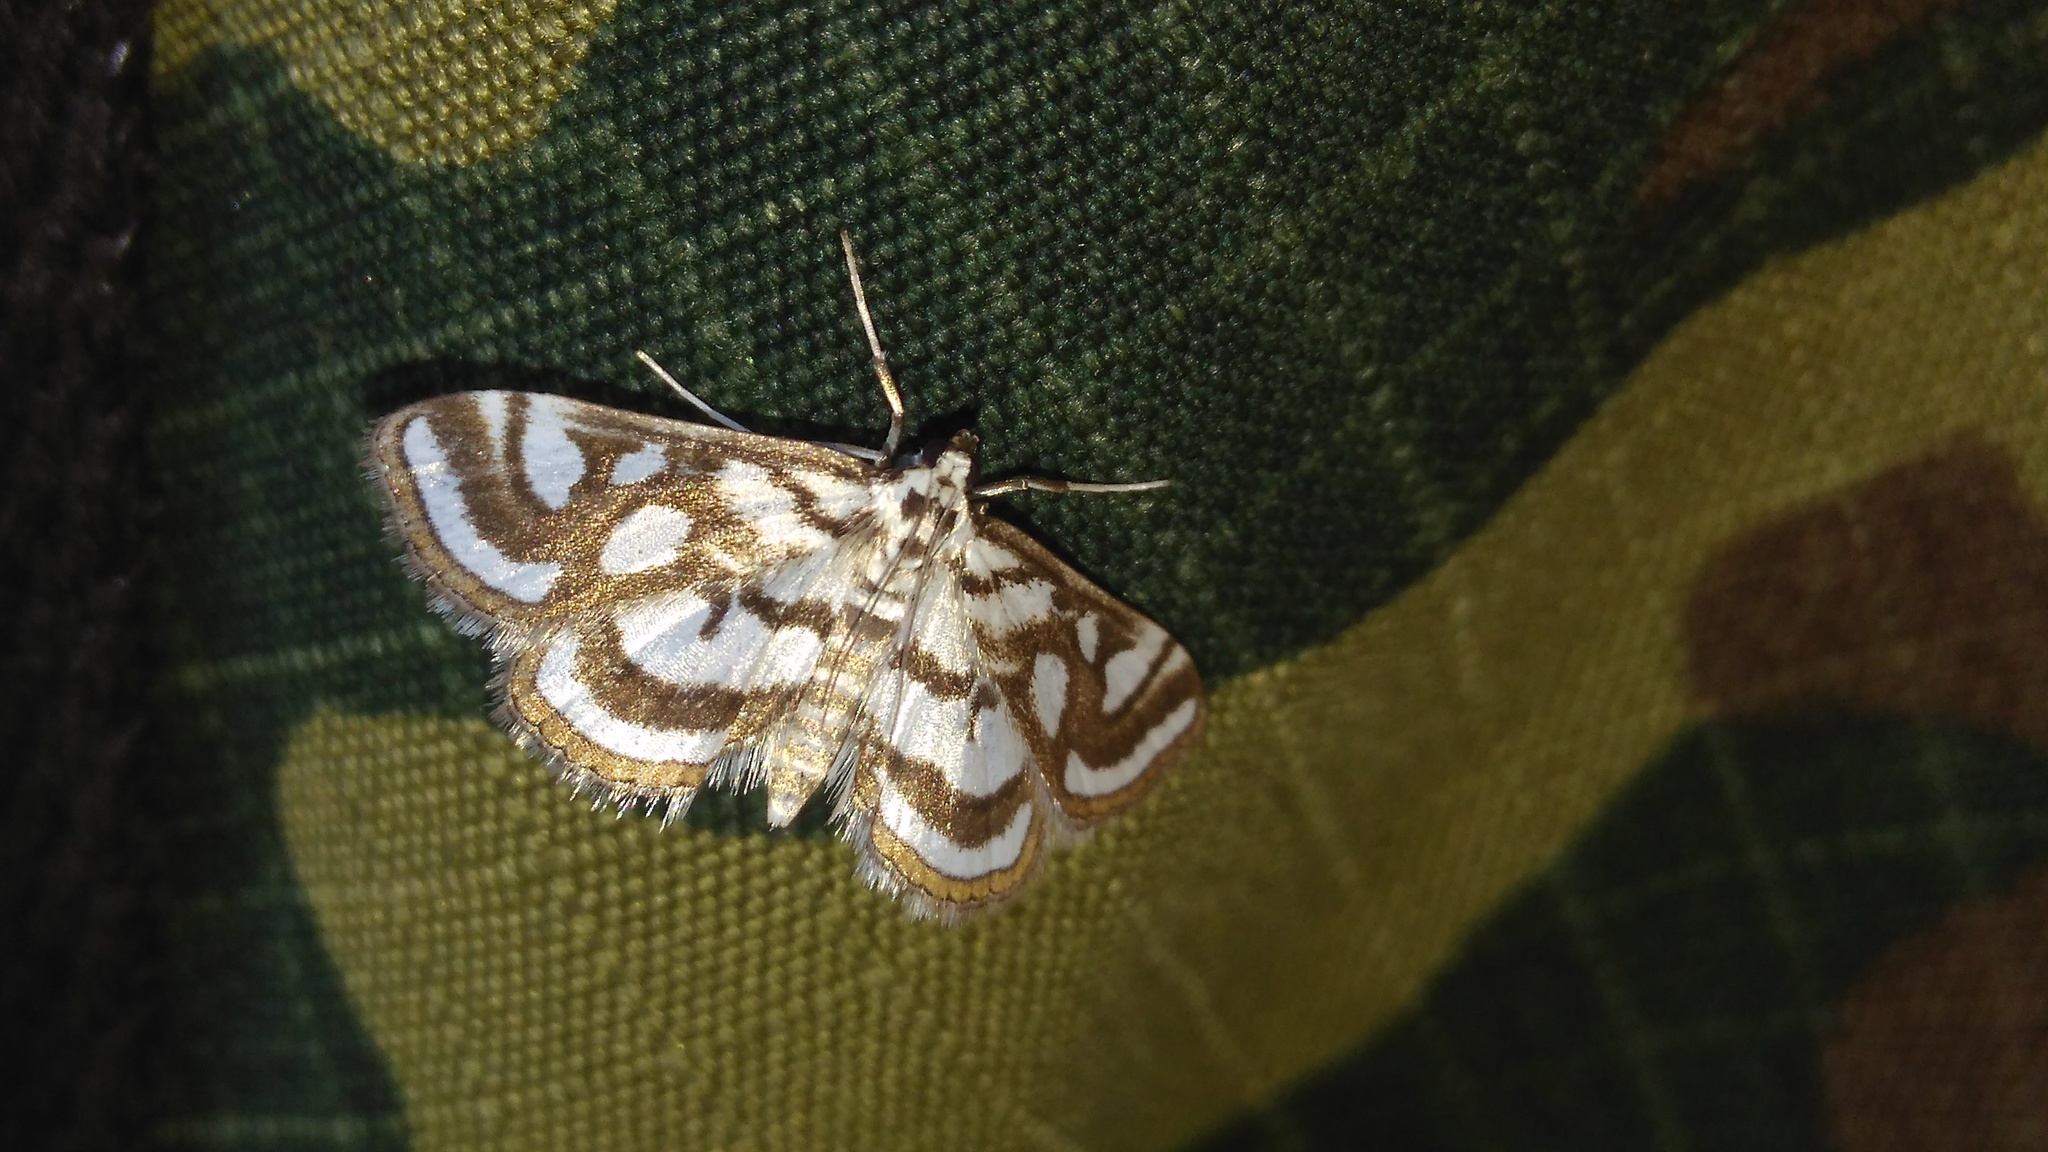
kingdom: Animalia
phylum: Arthropoda
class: Insecta
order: Lepidoptera
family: Crambidae
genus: Nymphula
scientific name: Nymphula nitidulata
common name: Beautiful china mark
